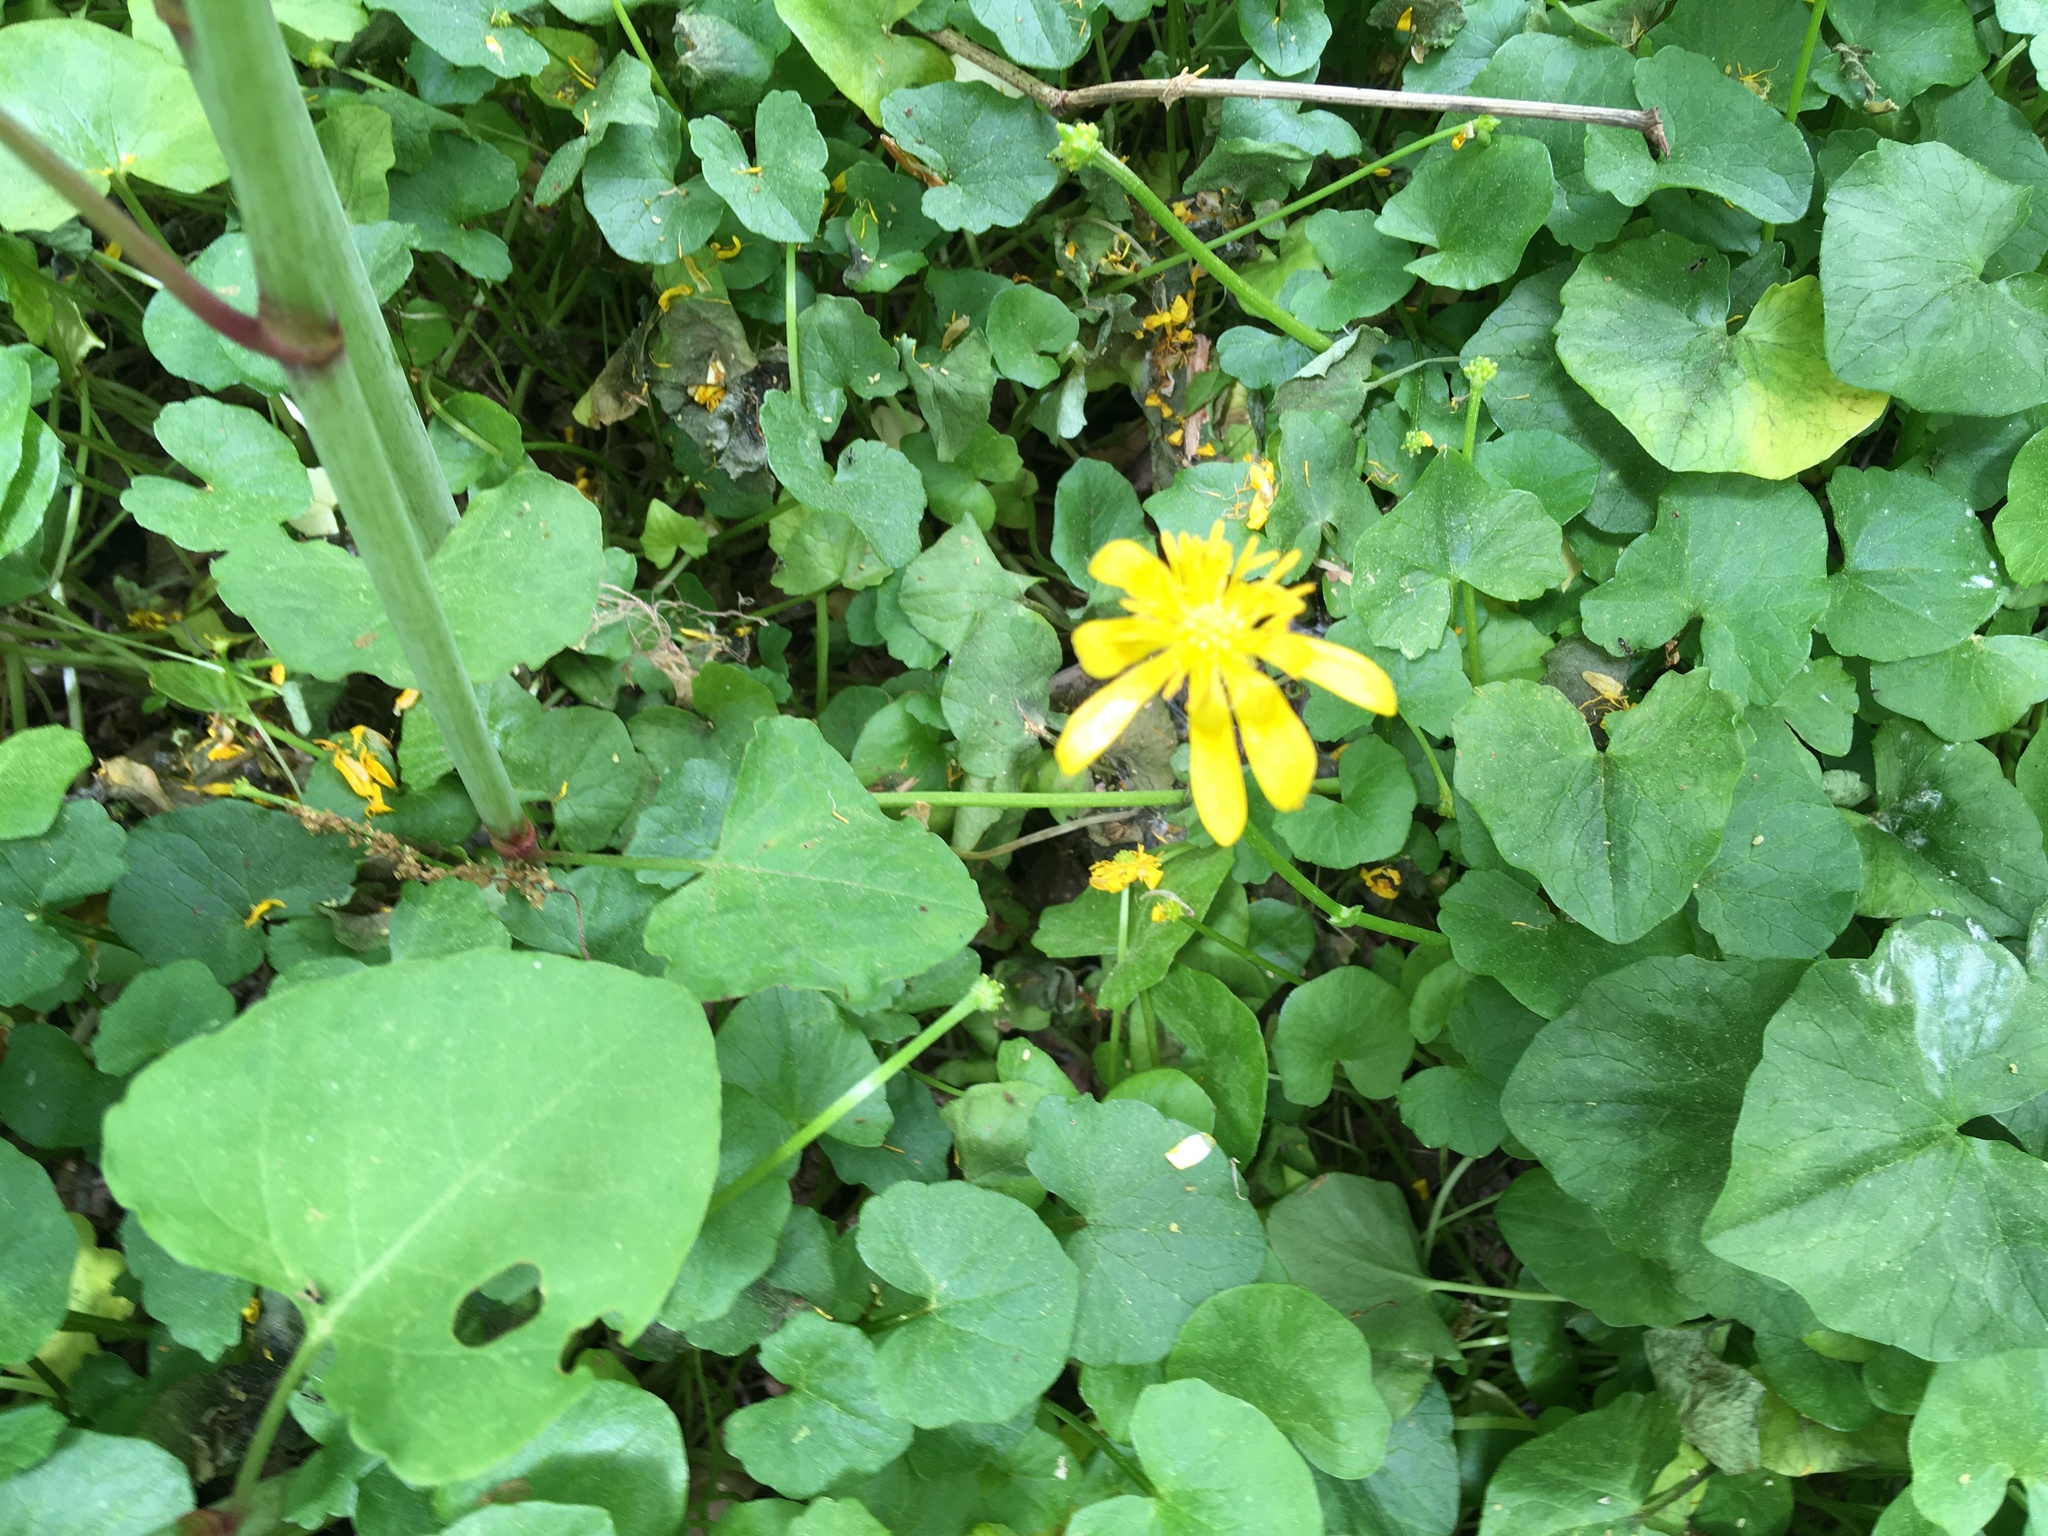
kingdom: Plantae
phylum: Tracheophyta
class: Magnoliopsida
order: Ranunculales
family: Ranunculaceae
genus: Ficaria
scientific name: Ficaria verna
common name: Lesser celandine
